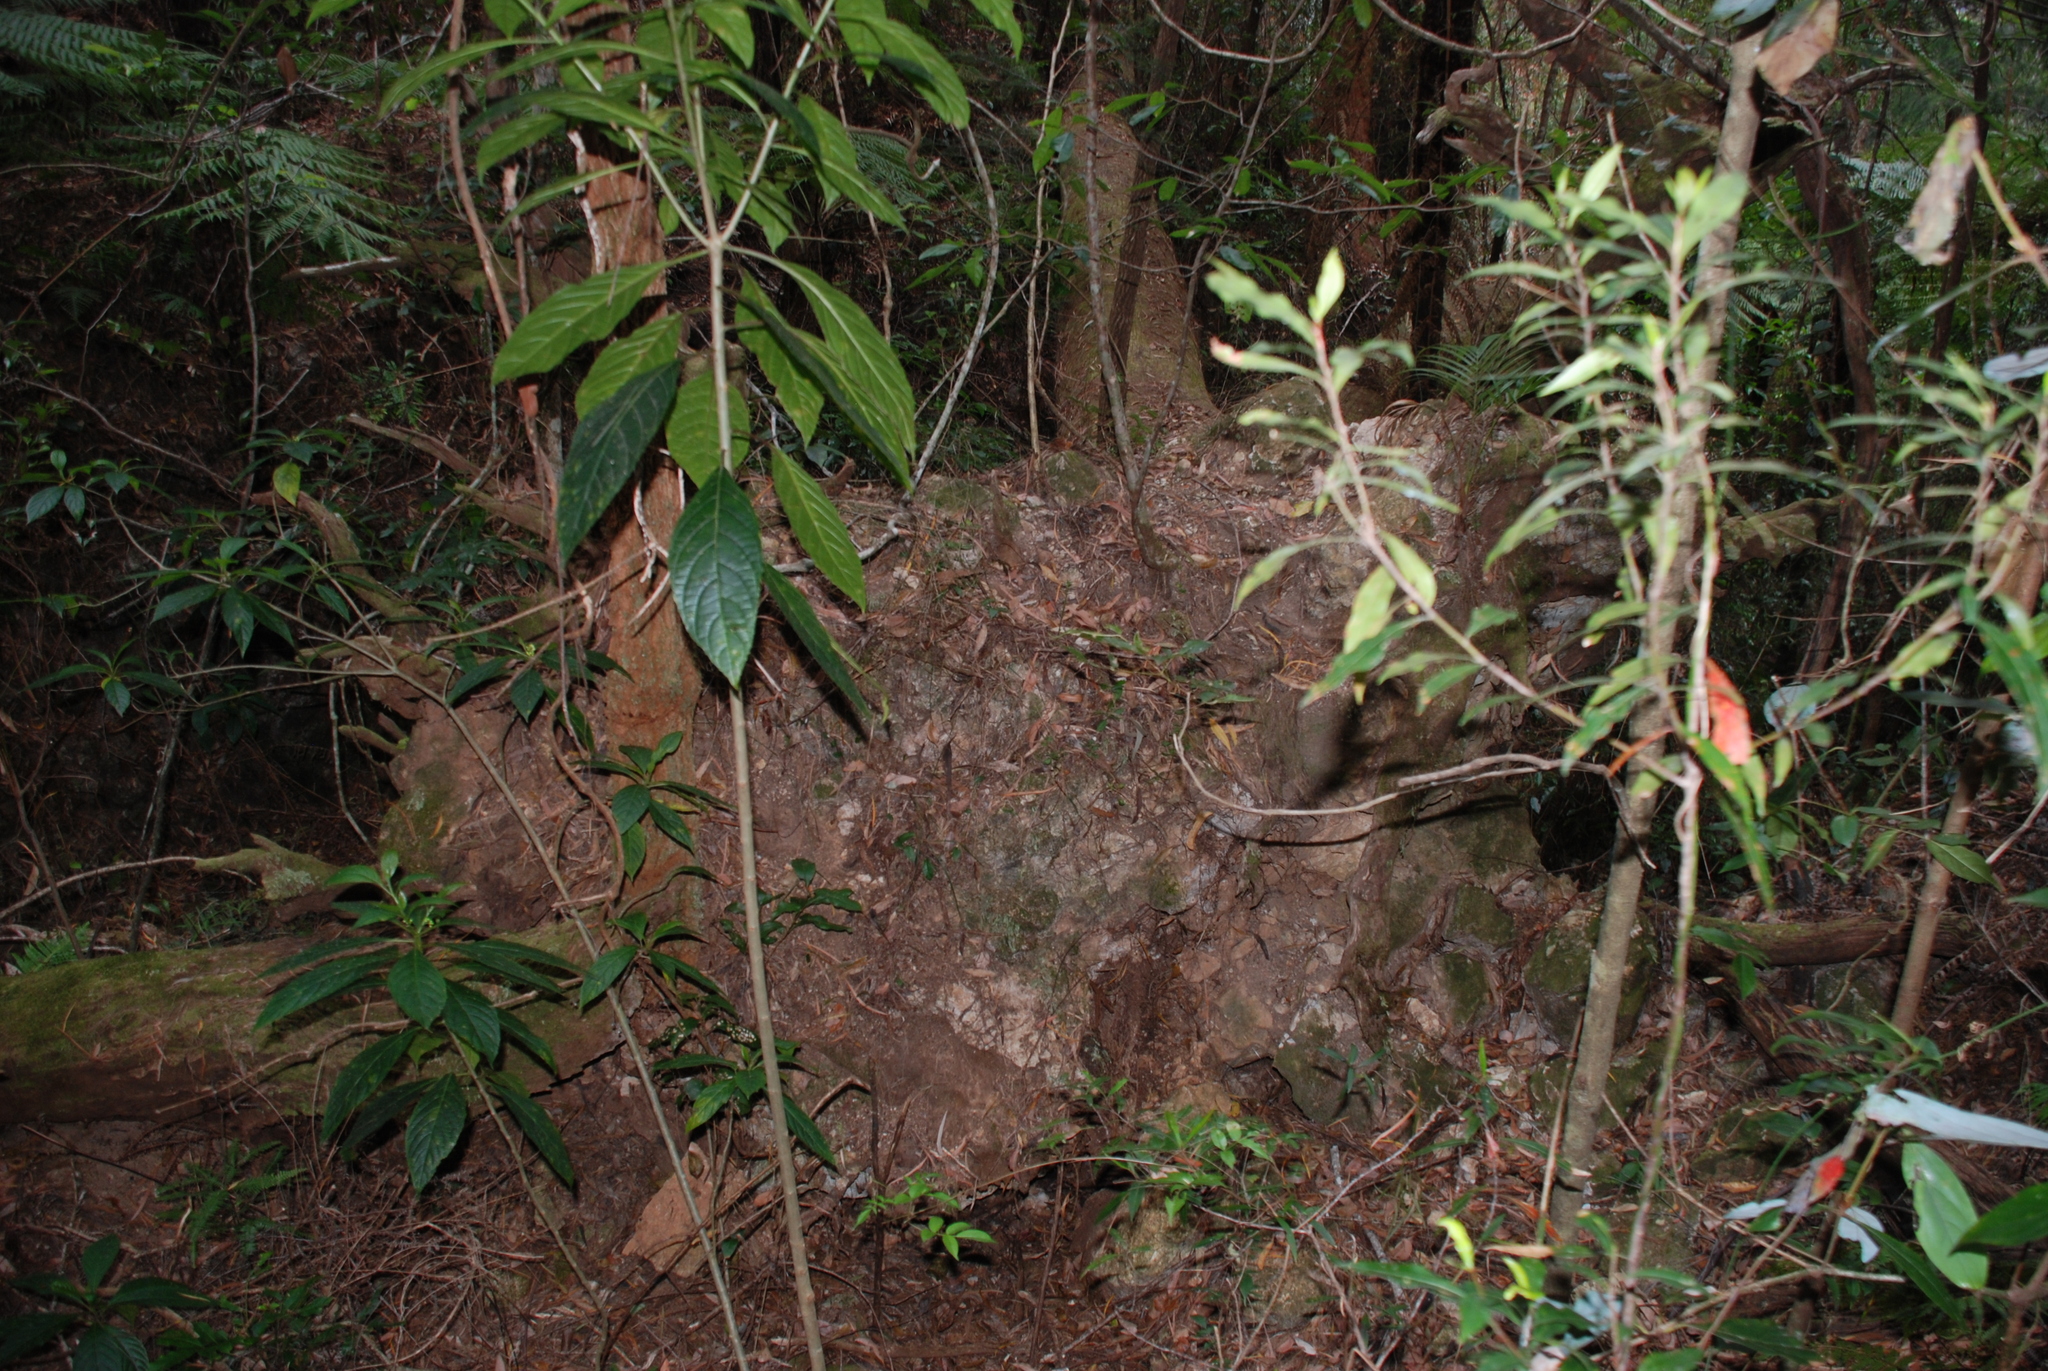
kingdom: Plantae
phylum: Tracheophyta
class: Magnoliopsida
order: Asterales
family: Rousseaceae
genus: Abrophyllum
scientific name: Abrophyllum ornans
